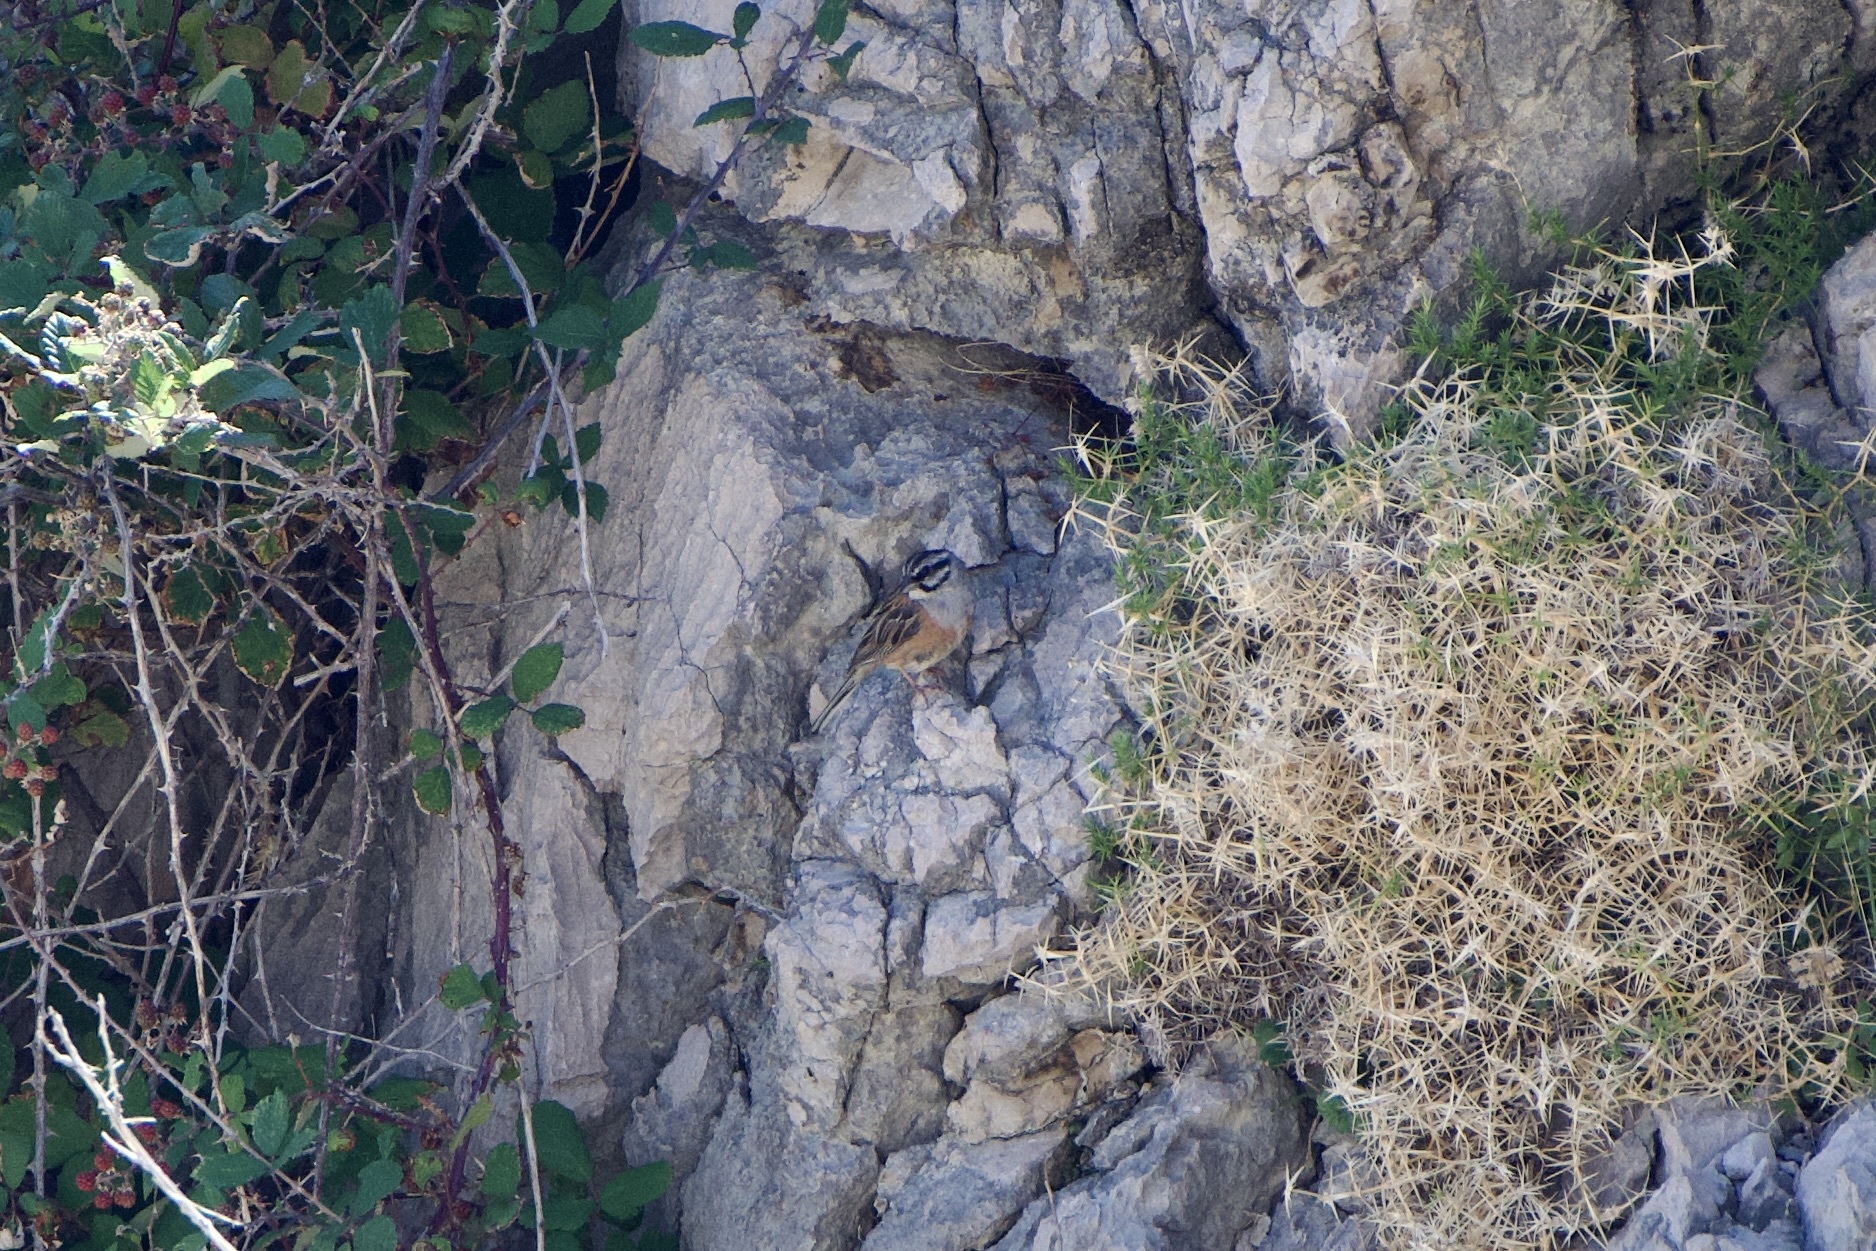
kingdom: Animalia
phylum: Chordata
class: Aves
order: Passeriformes
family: Emberizidae
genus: Emberiza
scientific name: Emberiza cia
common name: Rock bunting
